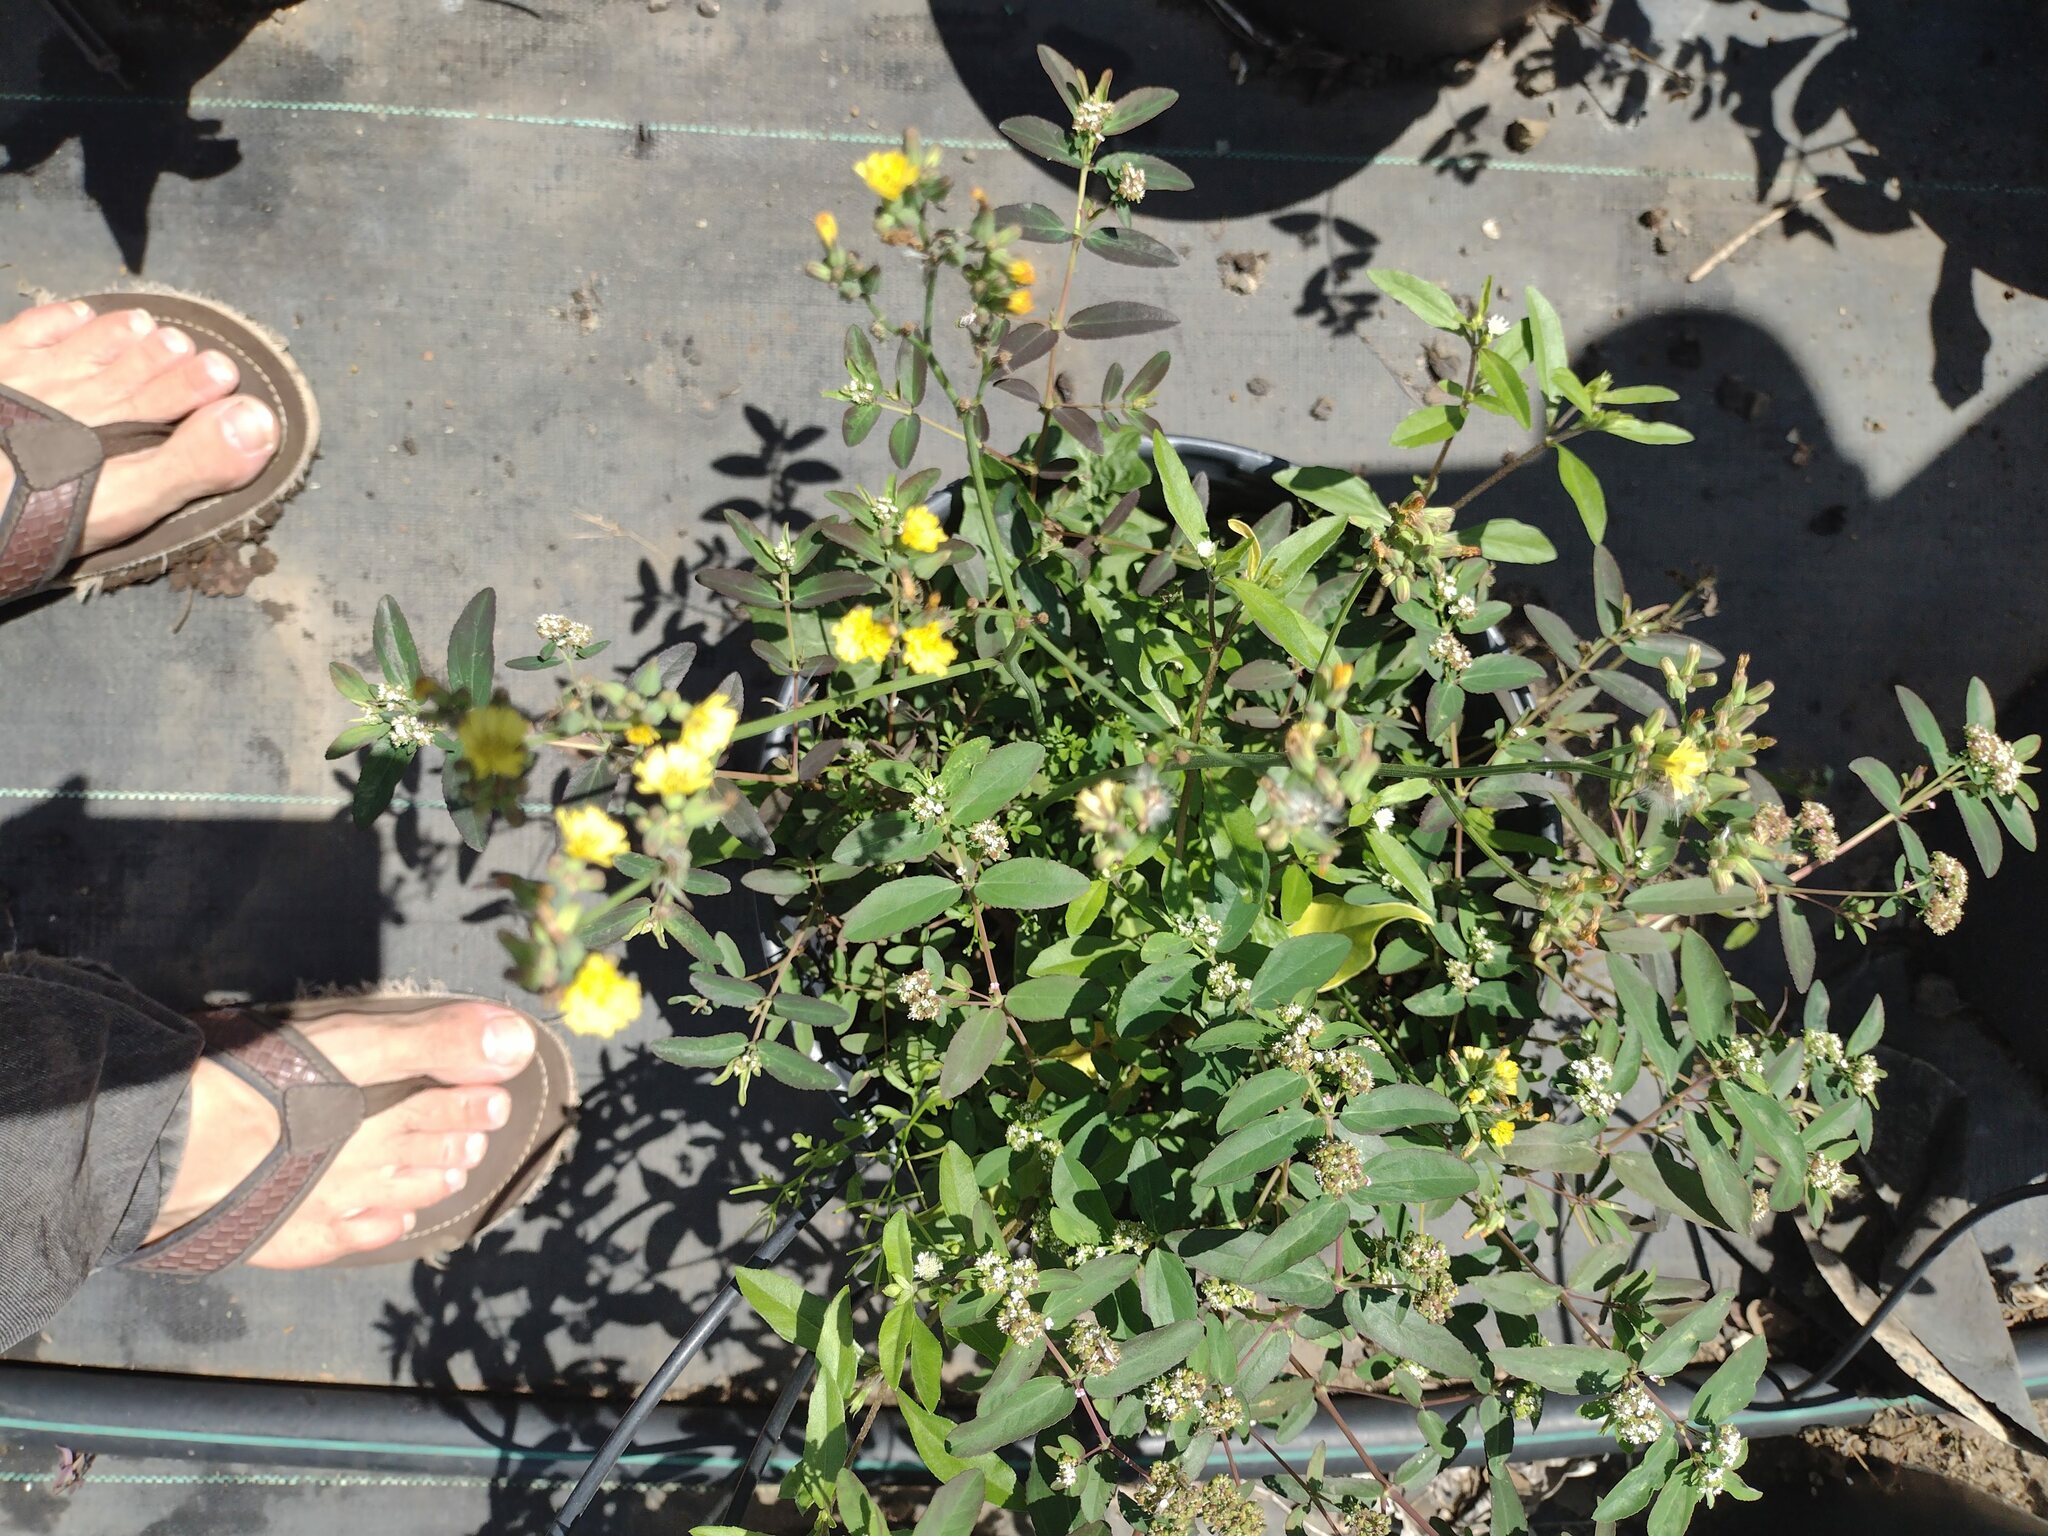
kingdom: Plantae
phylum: Tracheophyta
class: Magnoliopsida
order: Asterales
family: Asteraceae
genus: Youngia
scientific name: Youngia japonica
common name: Oriental false hawksbeard
